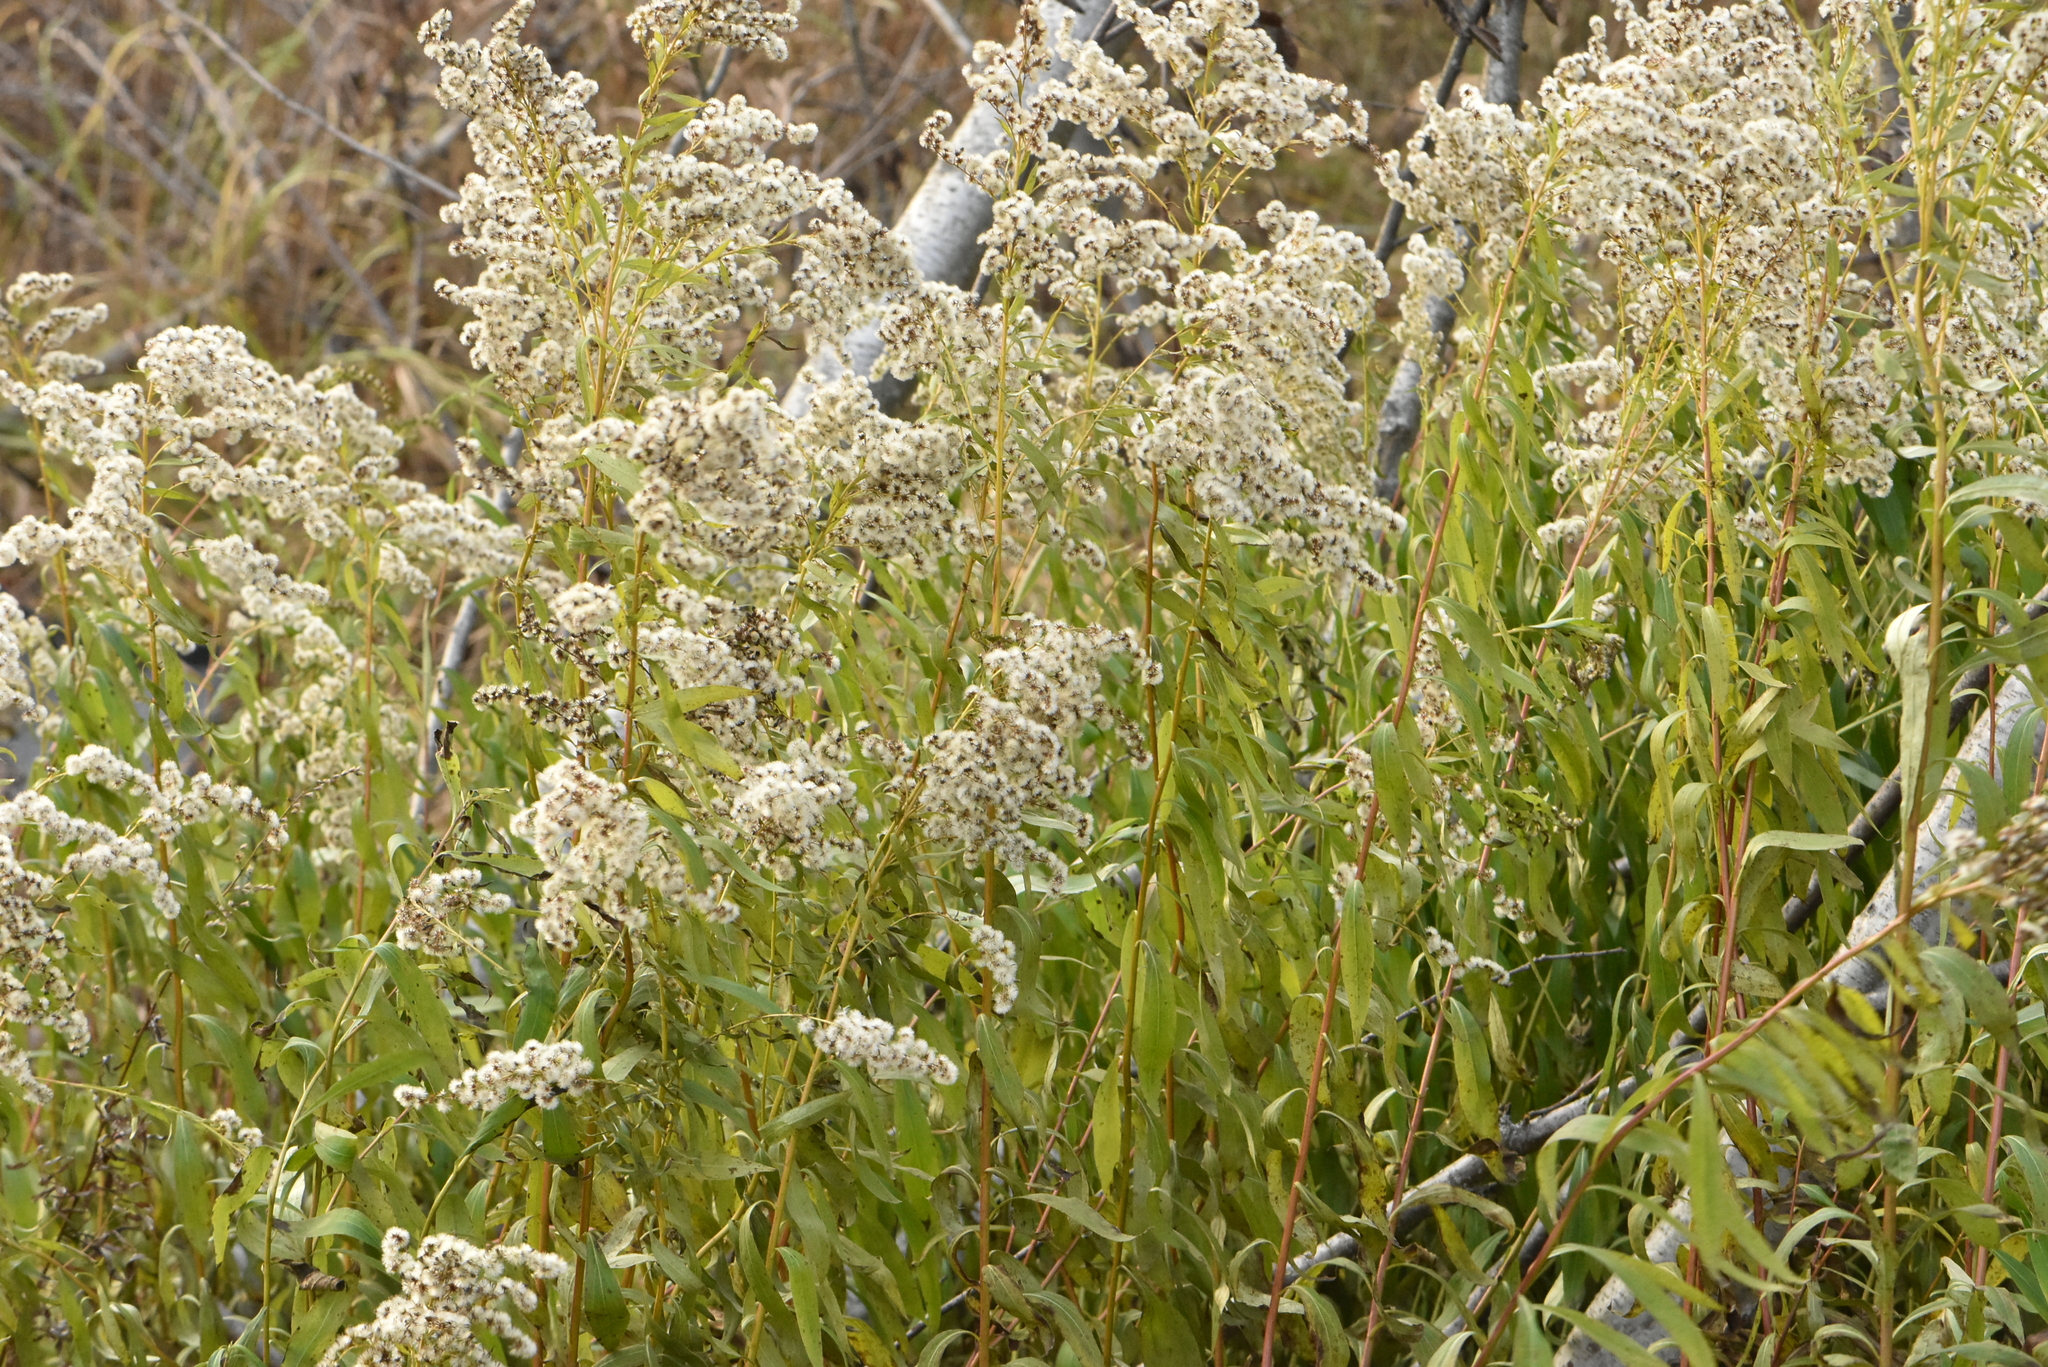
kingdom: Plantae
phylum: Tracheophyta
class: Magnoliopsida
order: Asterales
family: Asteraceae
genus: Solidago
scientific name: Solidago canadensis
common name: Canada goldenrod
